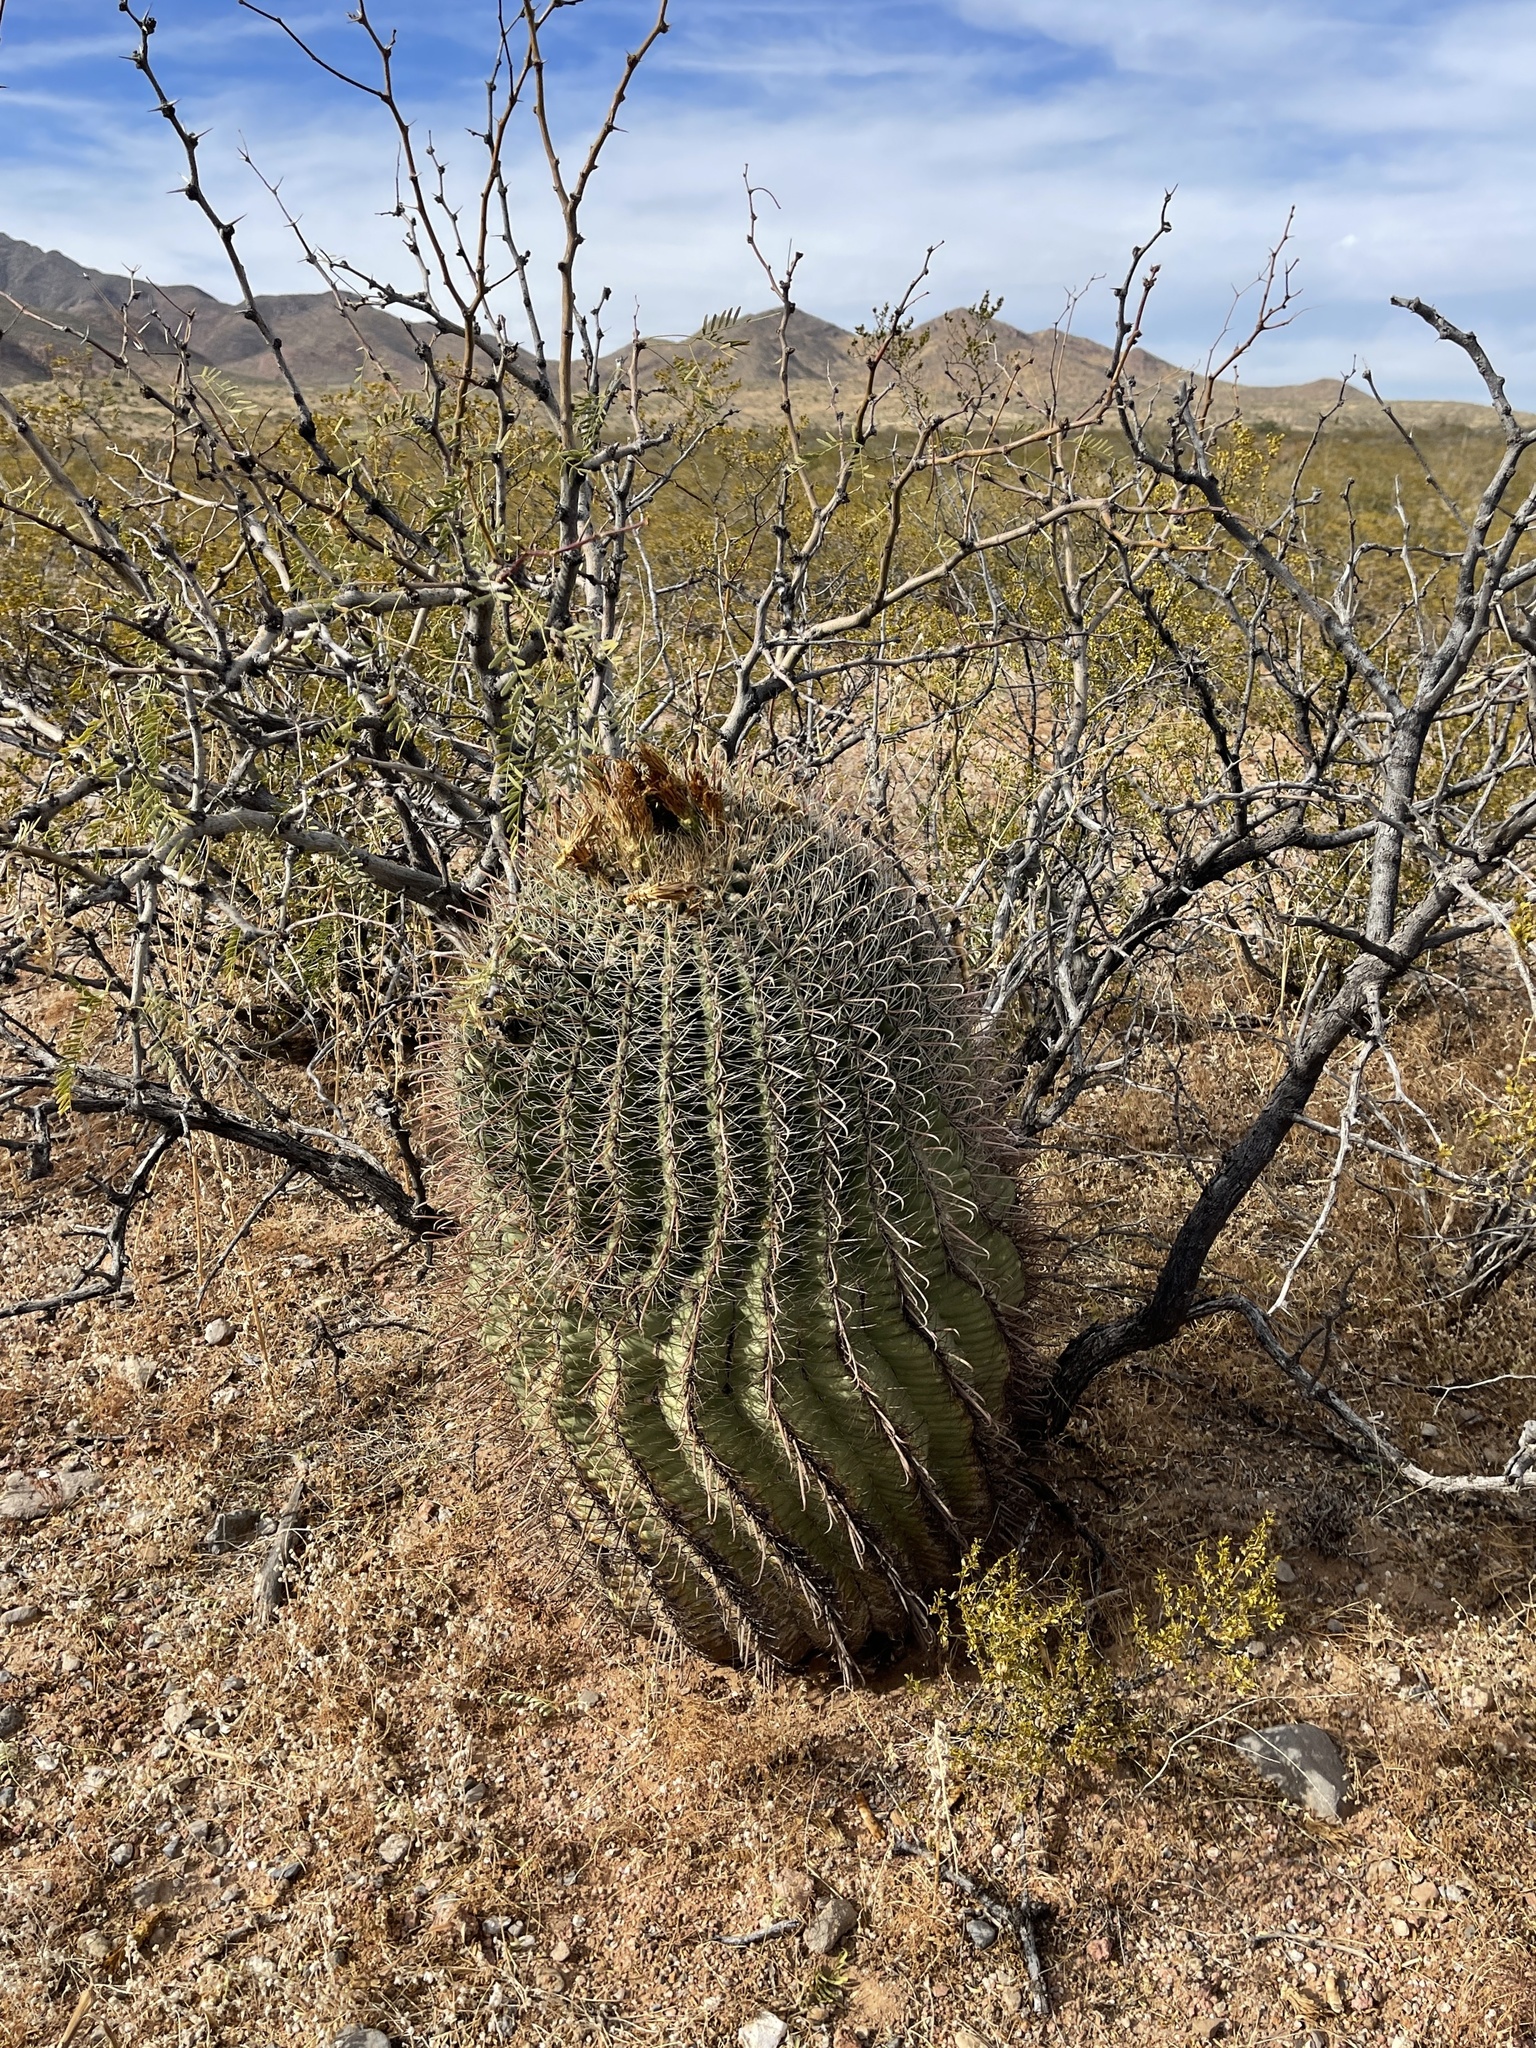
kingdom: Plantae
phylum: Tracheophyta
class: Magnoliopsida
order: Caryophyllales
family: Cactaceae
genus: Ferocactus
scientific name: Ferocactus wislizeni
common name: Candy barrel cactus
